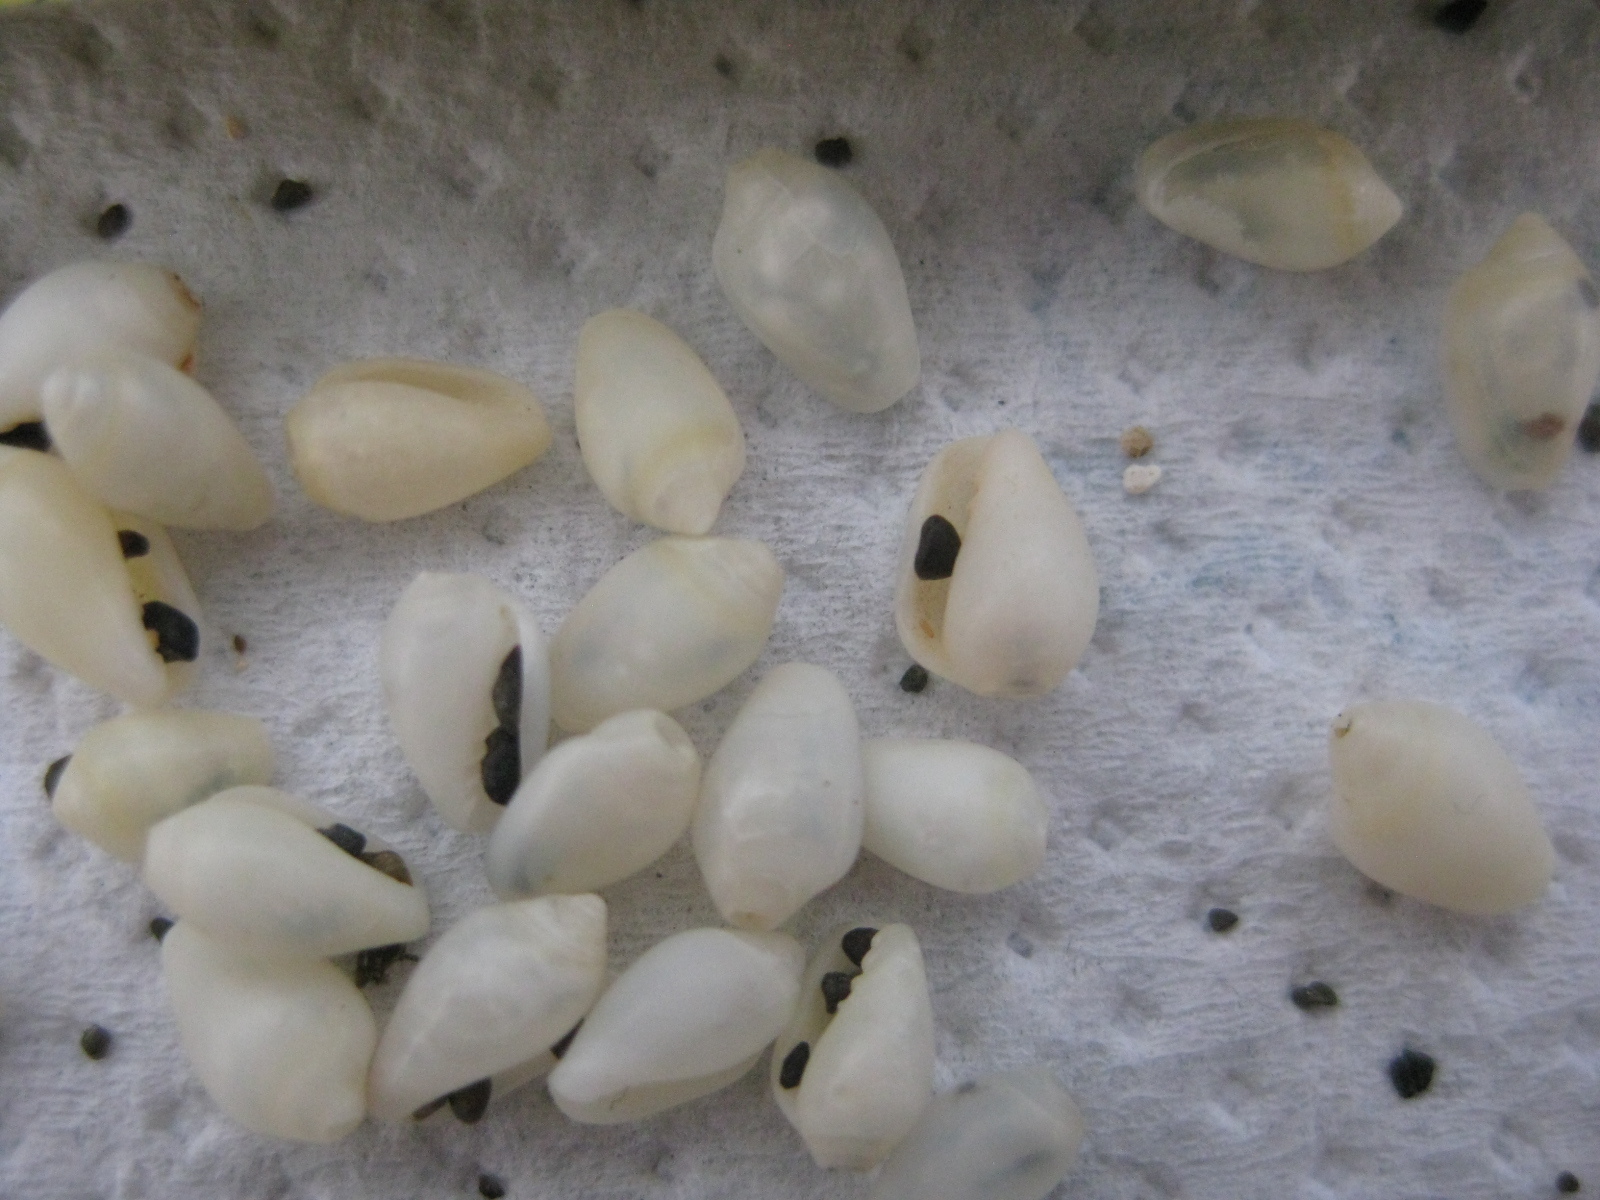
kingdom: Animalia
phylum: Mollusca
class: Gastropoda
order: Neogastropoda
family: Marginellidae
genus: Mesoginella
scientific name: Mesoginella koma
